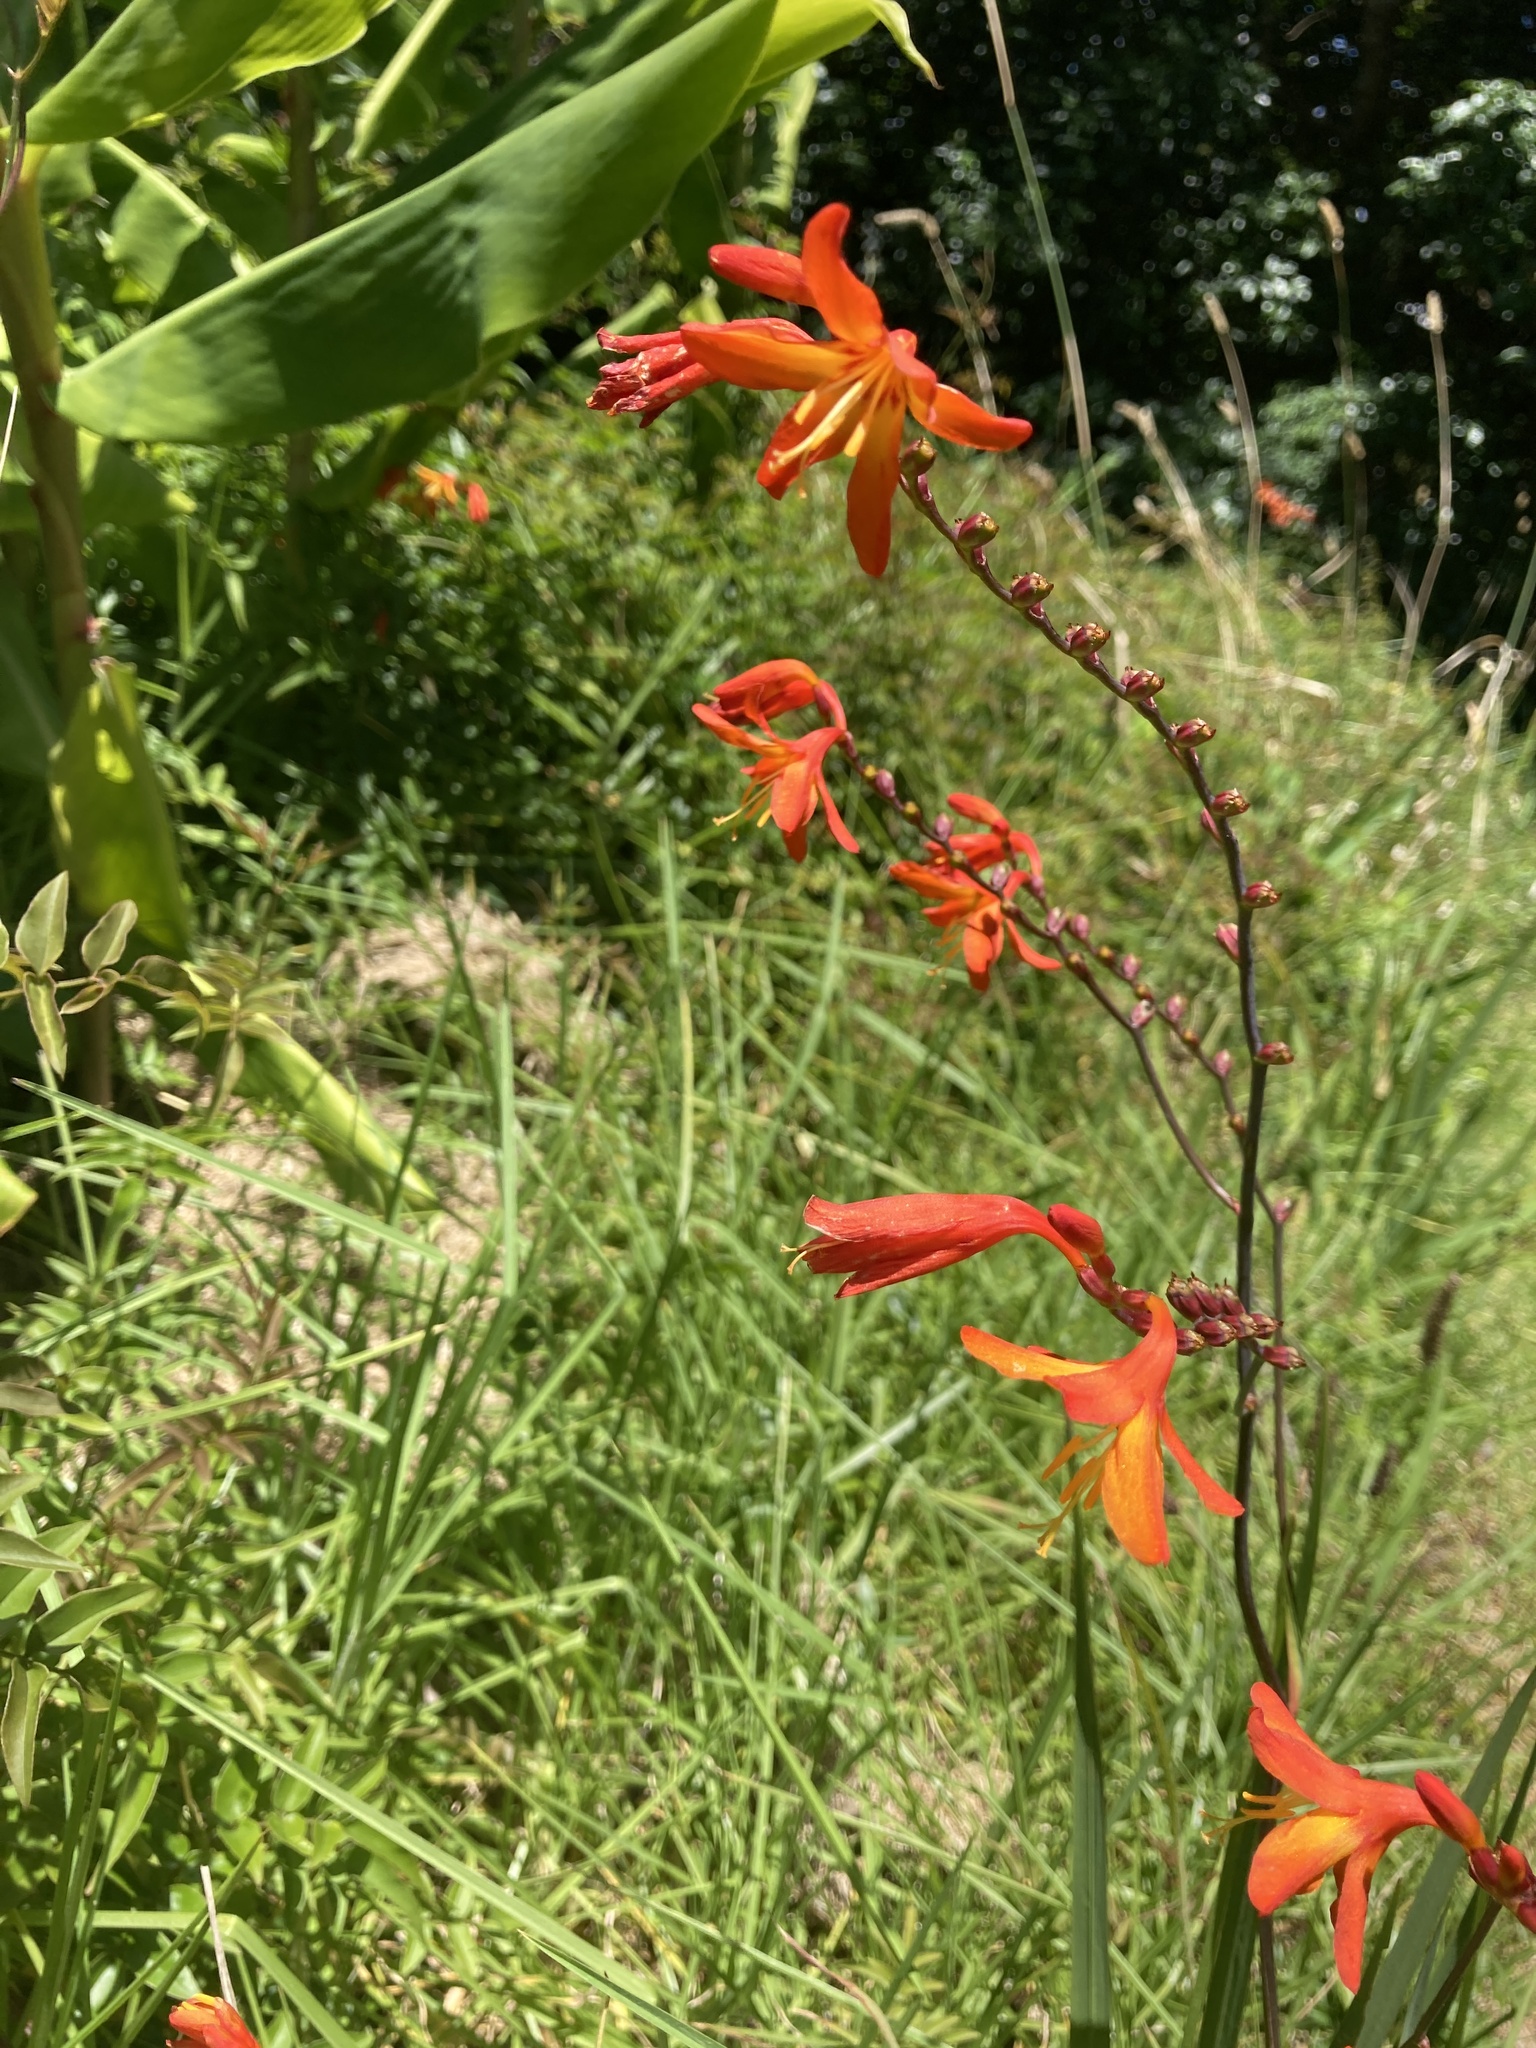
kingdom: Plantae
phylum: Tracheophyta
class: Liliopsida
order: Asparagales
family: Iridaceae
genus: Crocosmia
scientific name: Crocosmia crocosmiiflora
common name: Montbretia
